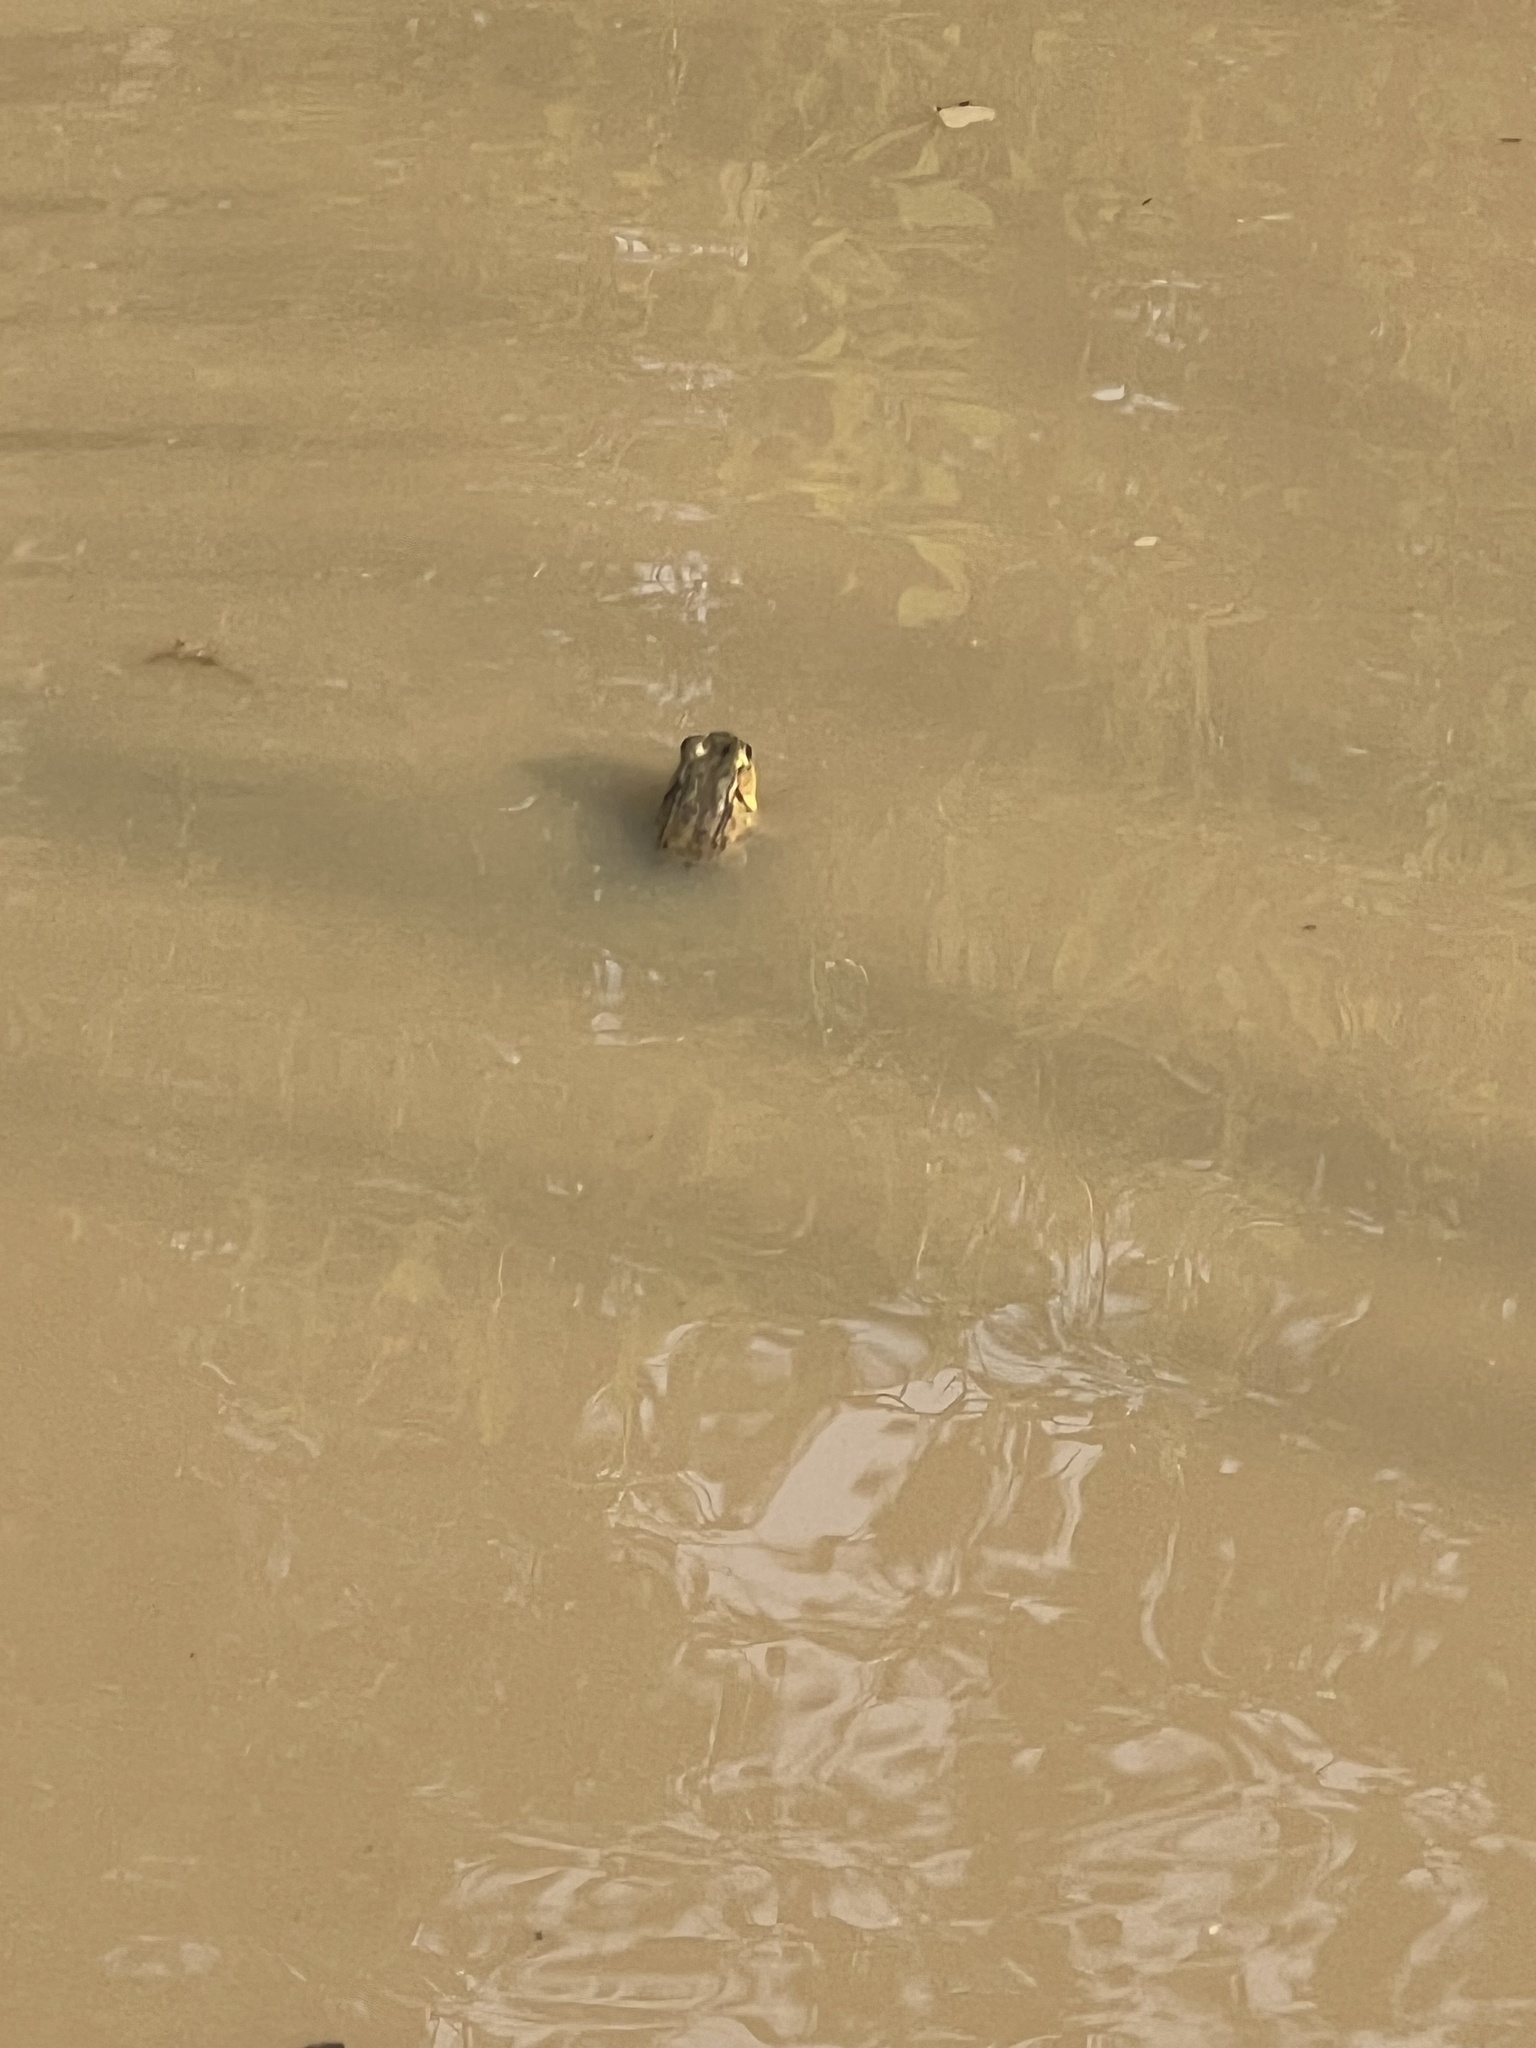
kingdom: Animalia
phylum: Chordata
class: Amphibia
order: Anura
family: Ranidae
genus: Lithobates
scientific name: Lithobates clamitans
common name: Green frog
